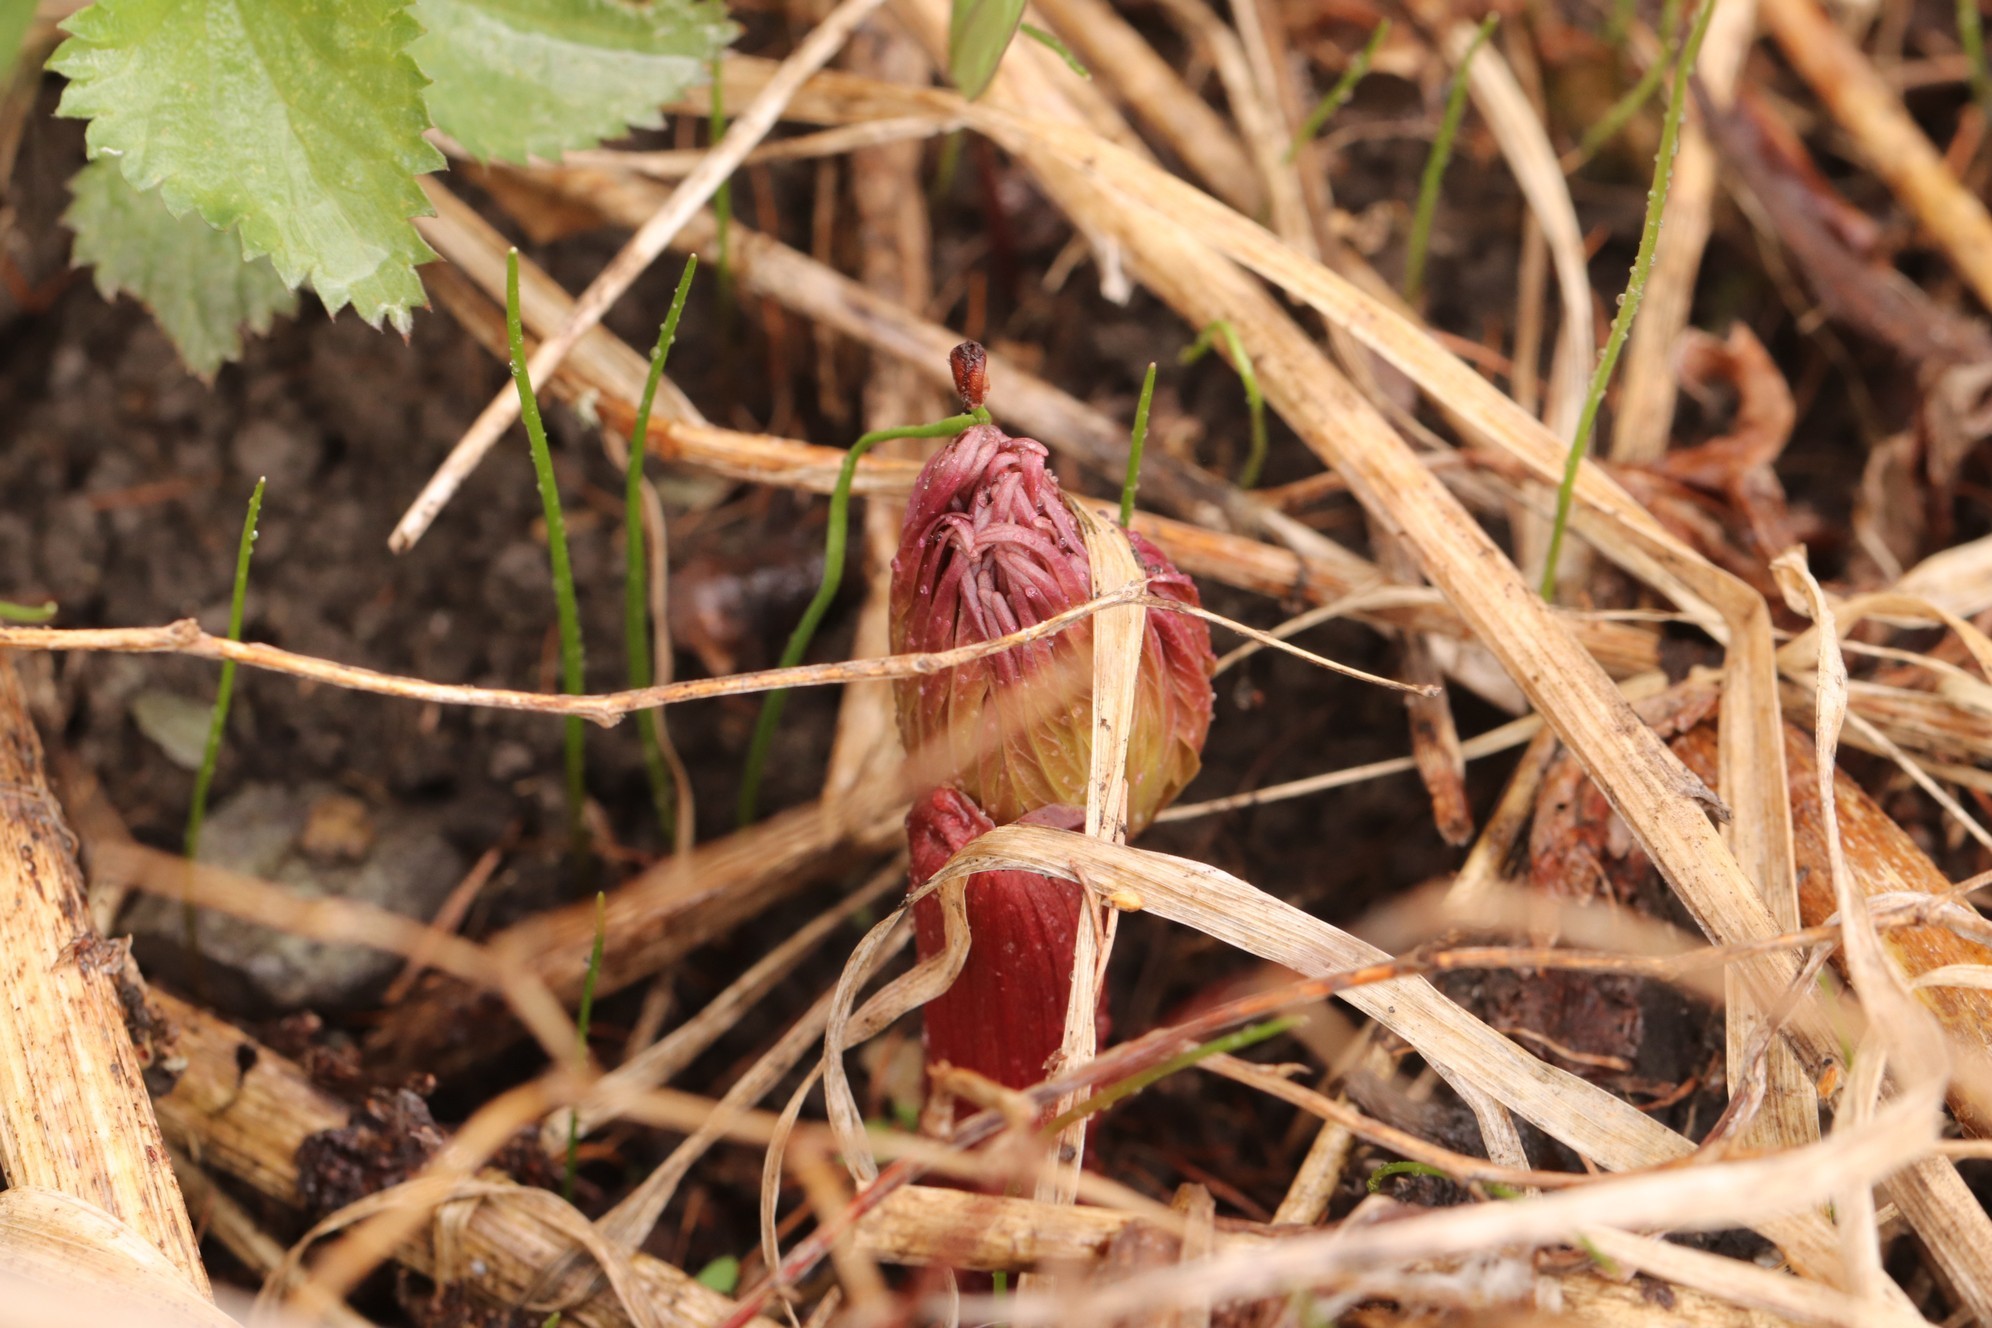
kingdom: Plantae
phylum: Tracheophyta
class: Magnoliopsida
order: Saxifragales
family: Paeoniaceae
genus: Paeonia
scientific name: Paeonia anomala
